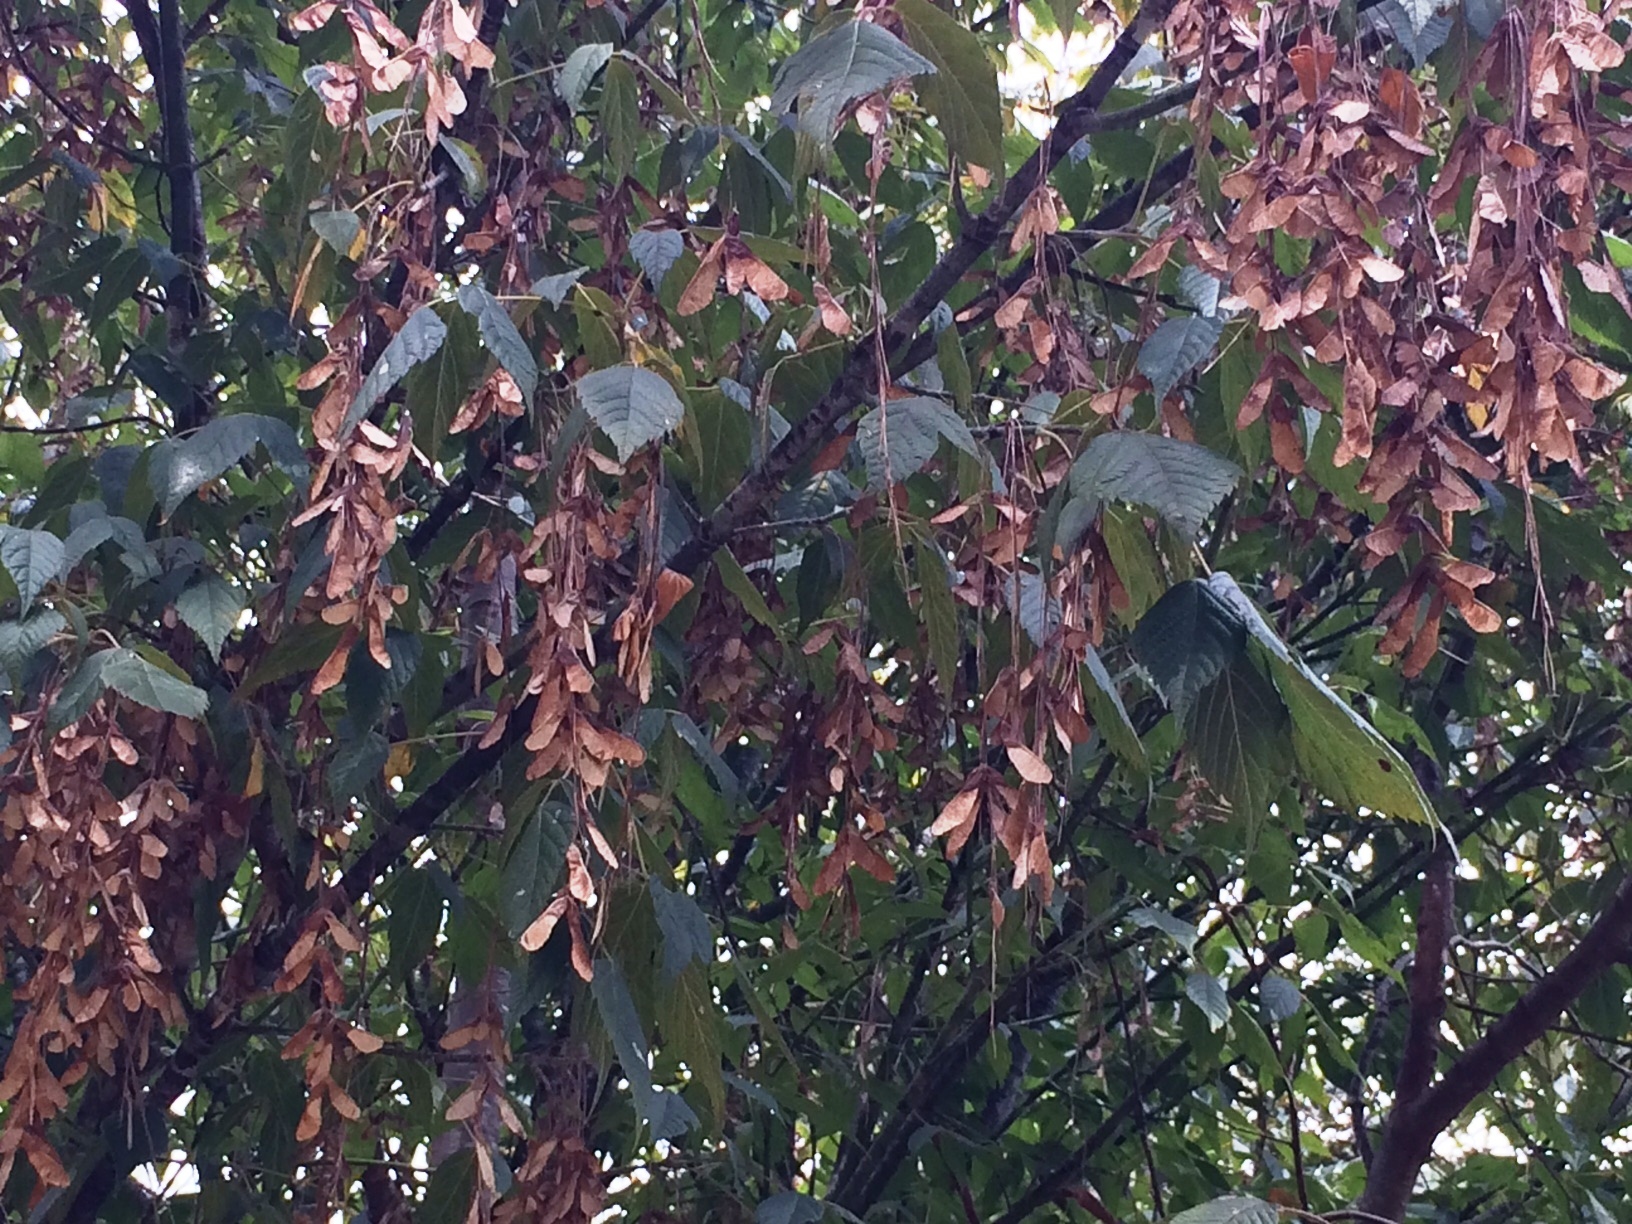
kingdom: Plantae
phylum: Tracheophyta
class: Magnoliopsida
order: Sapindales
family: Sapindaceae
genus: Acer
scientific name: Acer negundo
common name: Ashleaf maple
